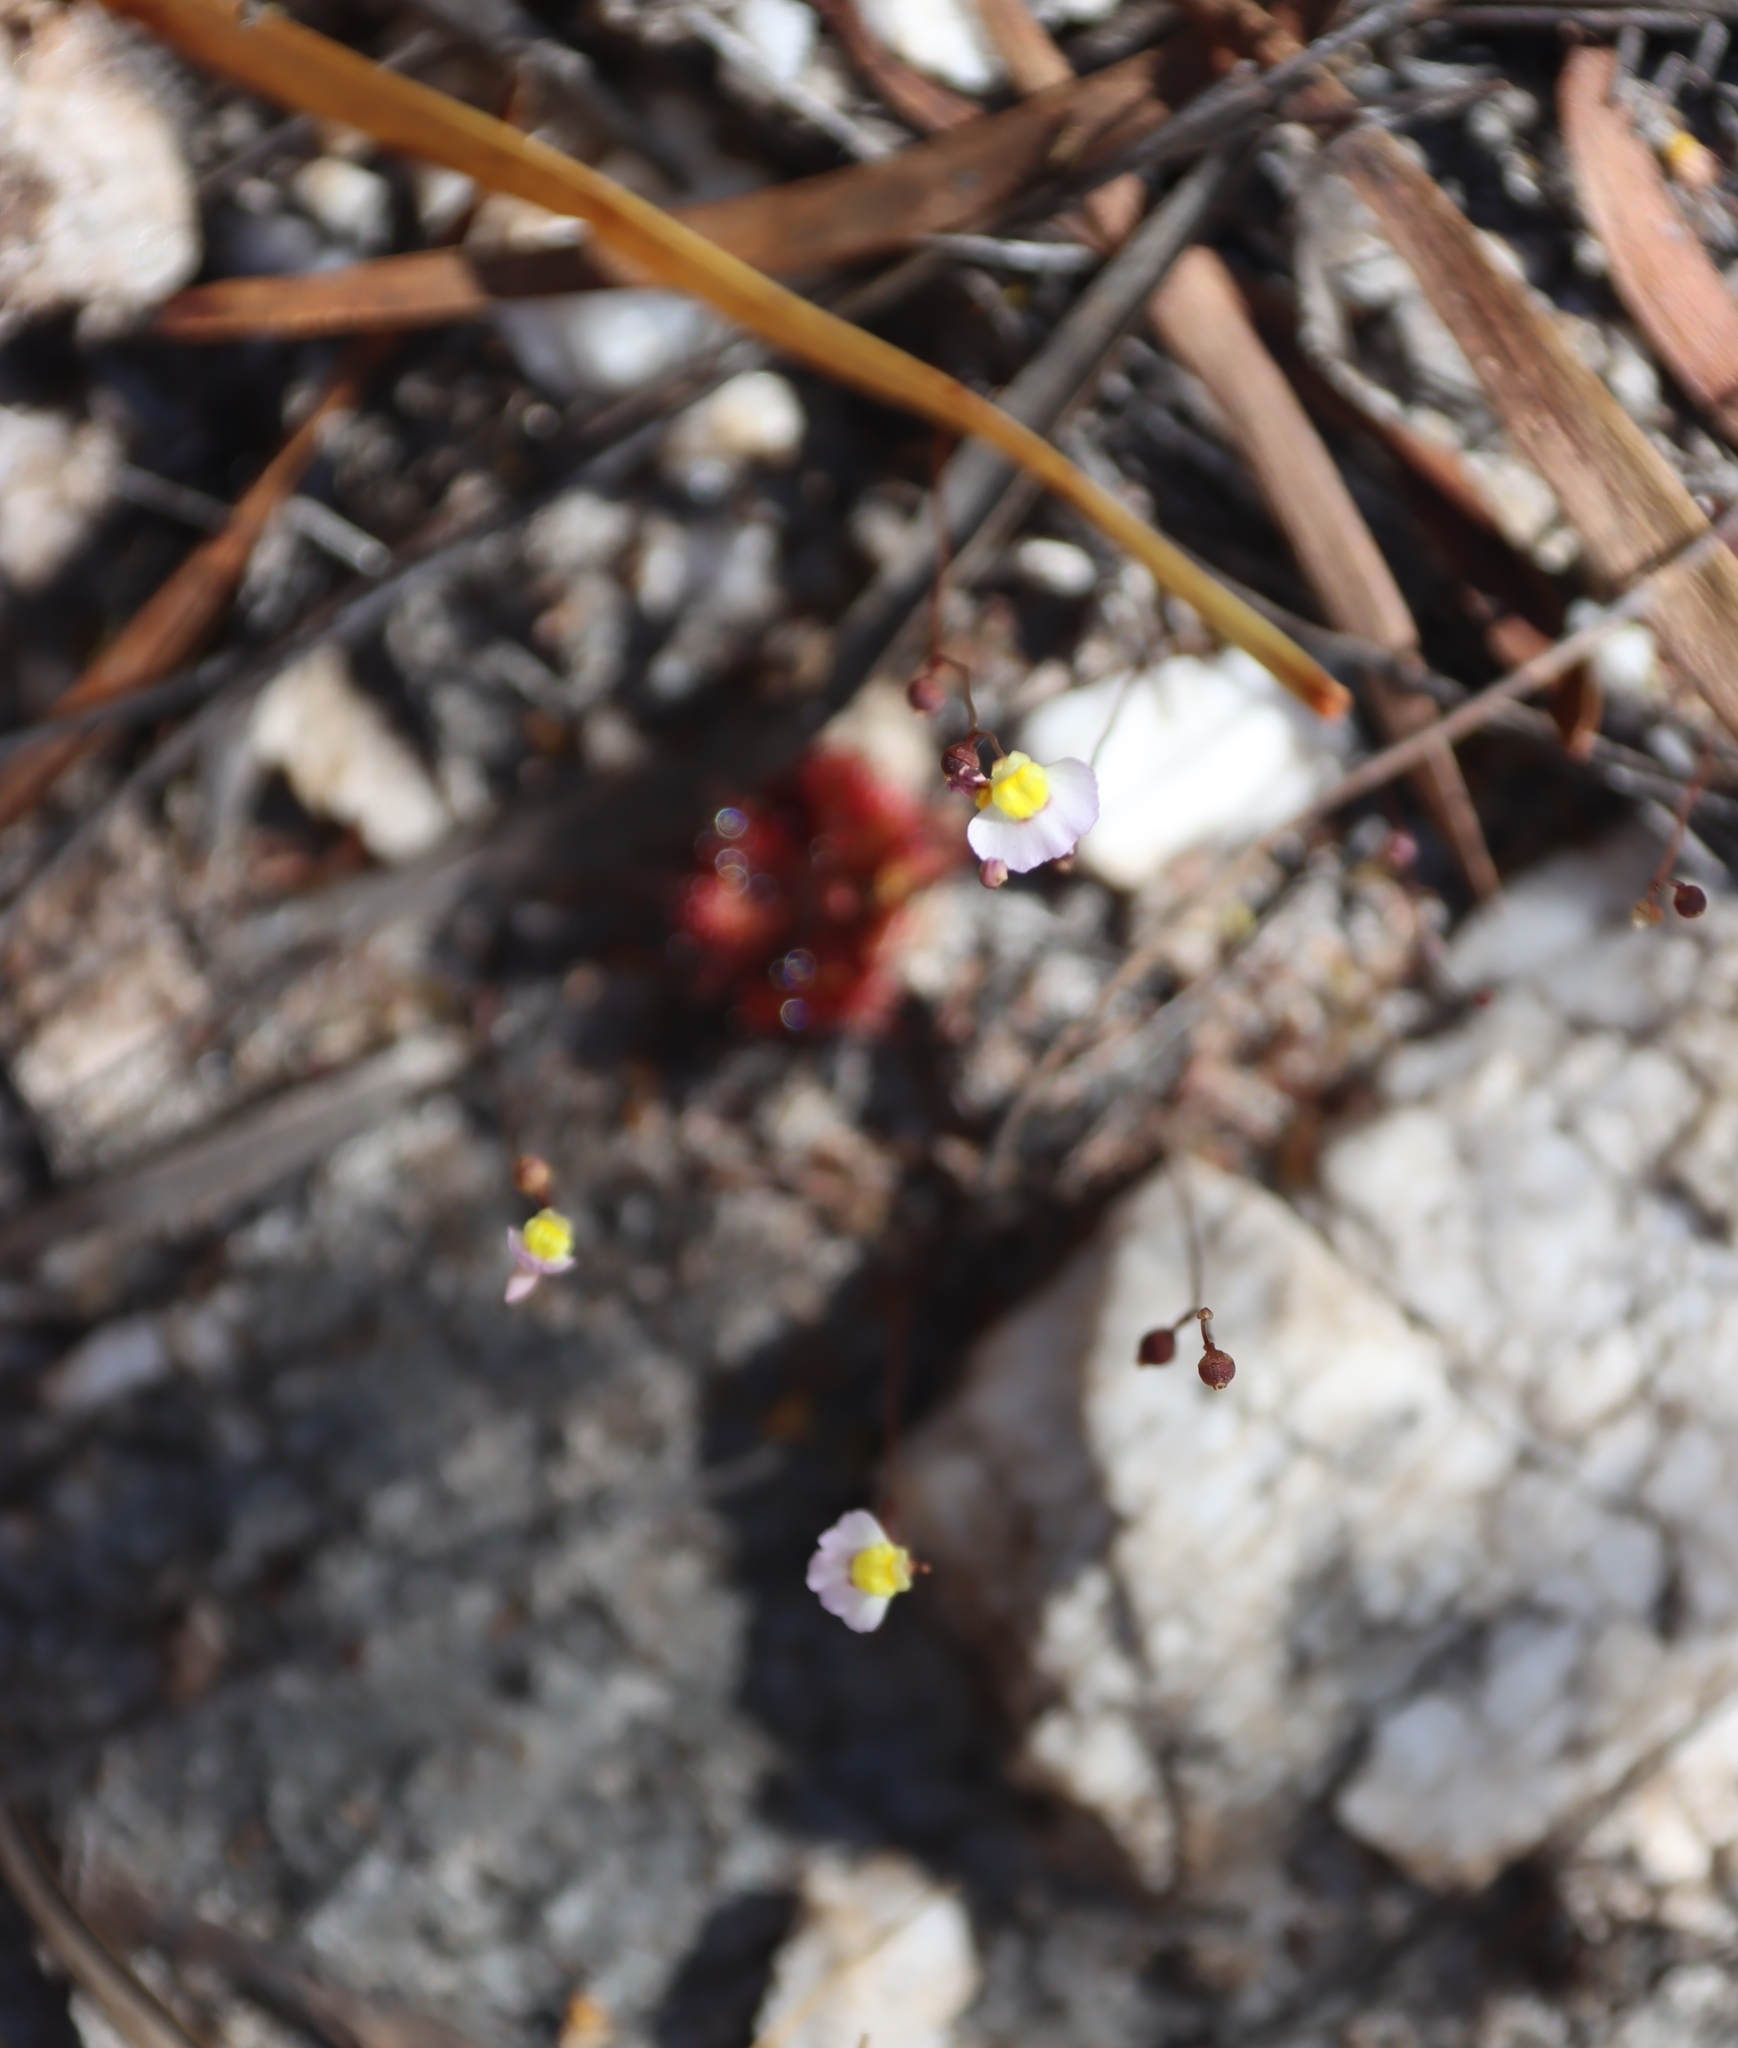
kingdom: Plantae
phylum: Tracheophyta
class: Magnoliopsida
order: Lamiales
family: Lentibulariaceae
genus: Utricularia
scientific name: Utricularia bisquamata
